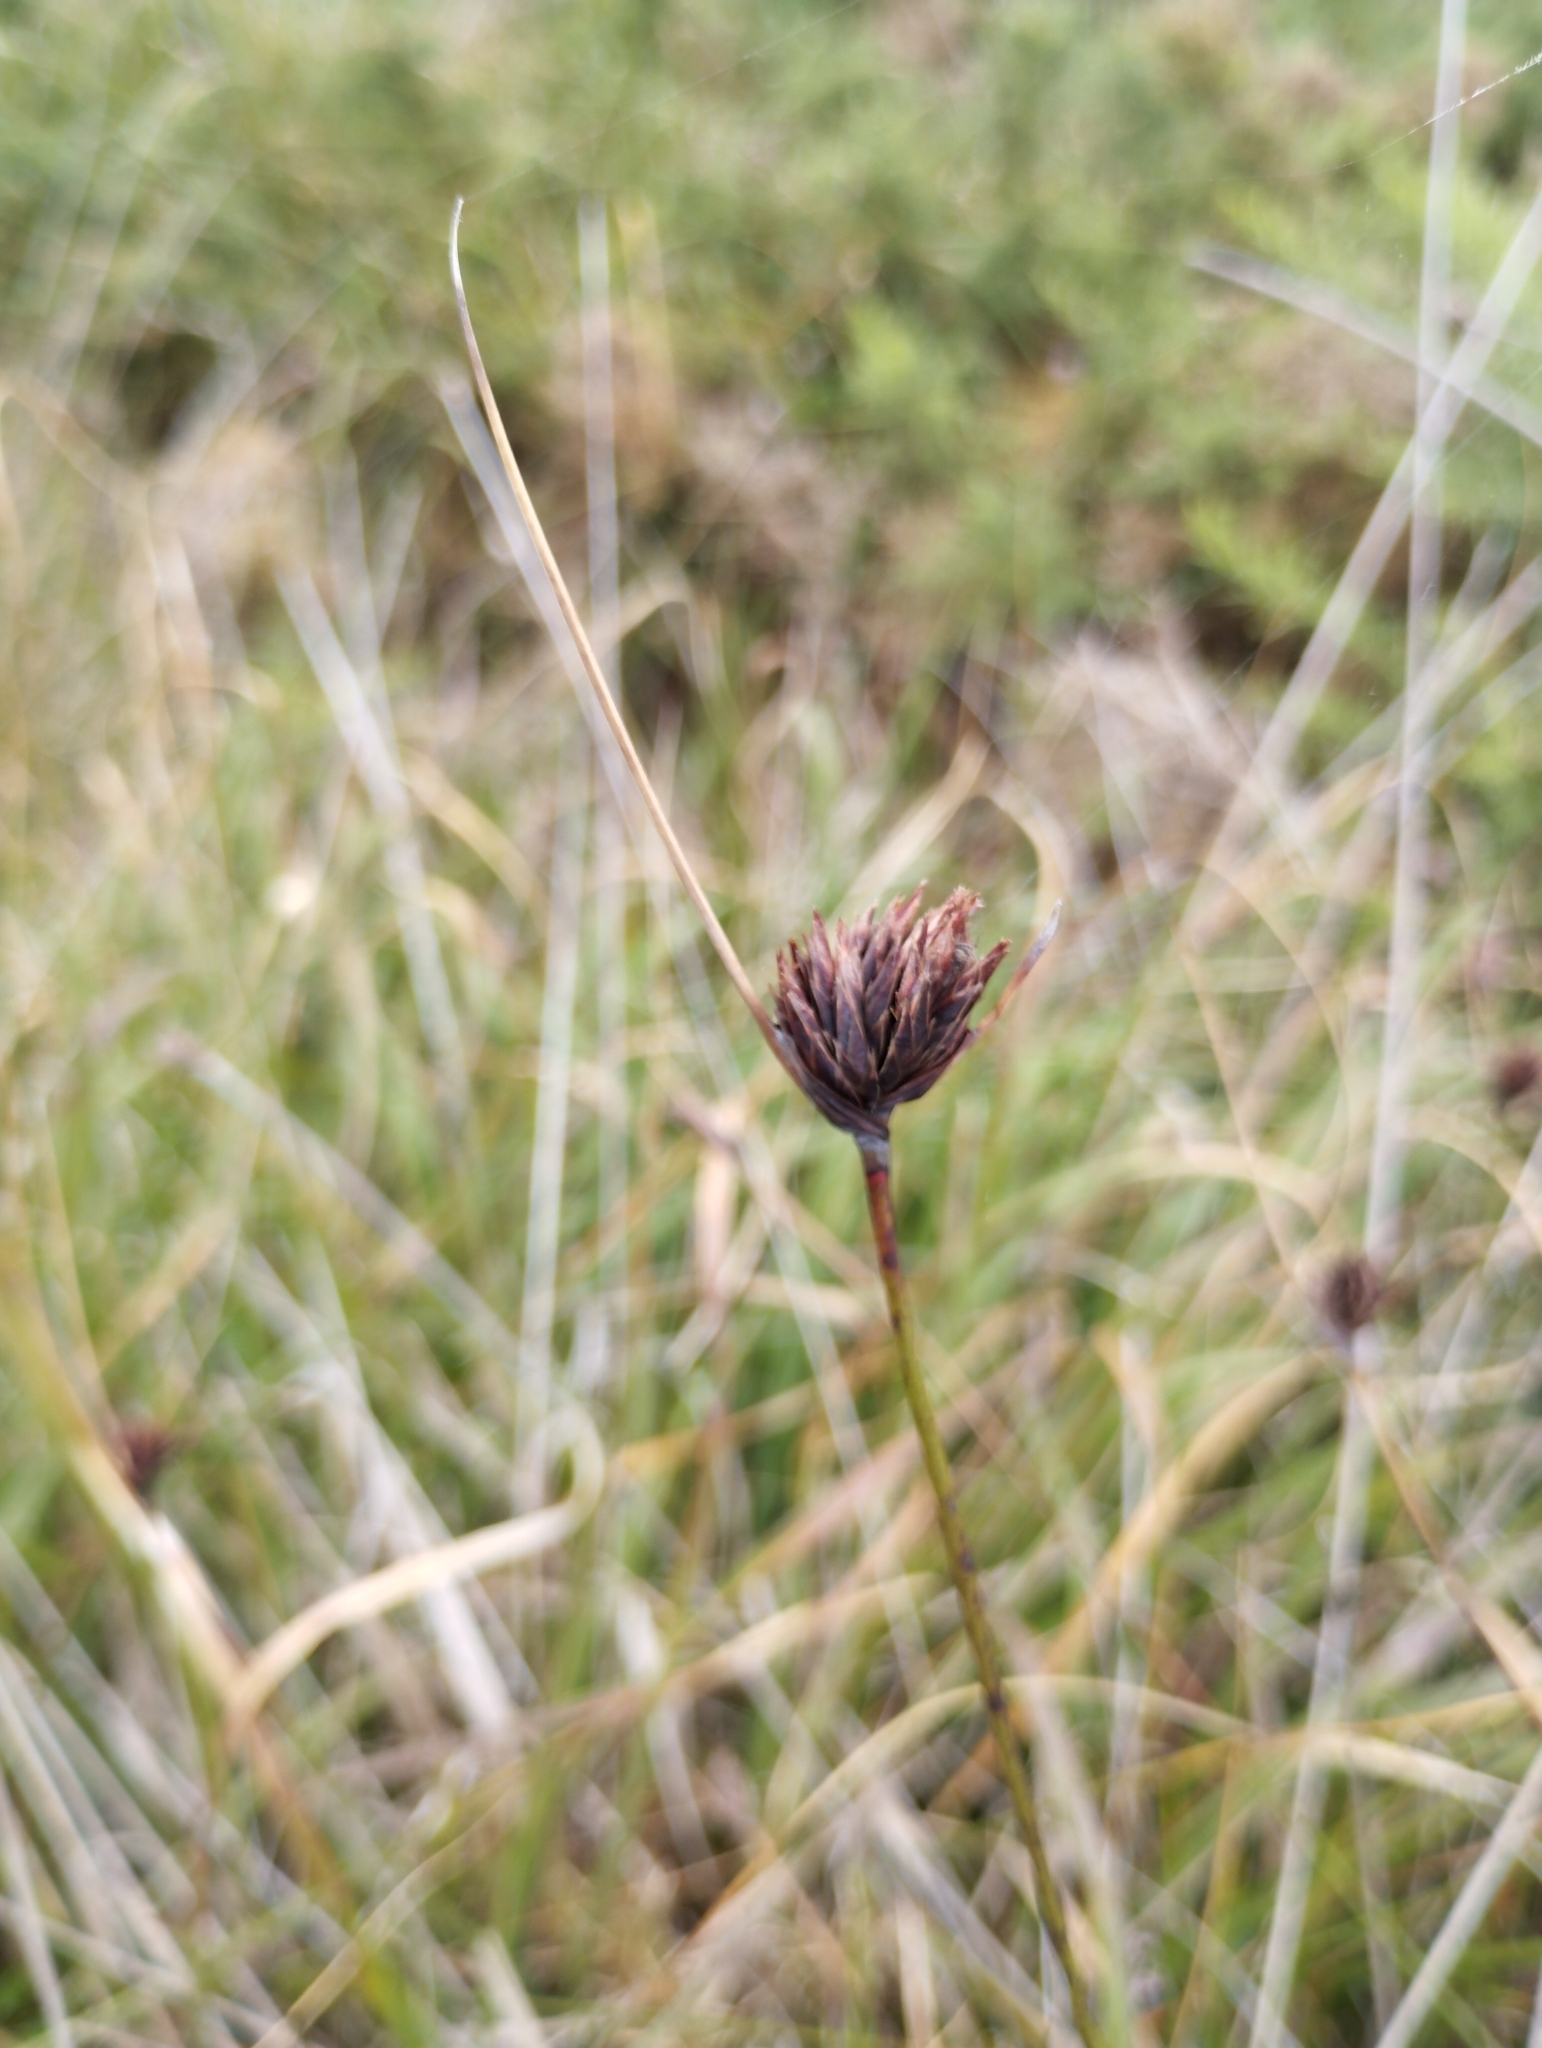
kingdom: Plantae
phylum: Tracheophyta
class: Liliopsida
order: Poales
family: Cyperaceae
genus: Schoenus
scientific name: Schoenus nigricans
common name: Black bog-rush
